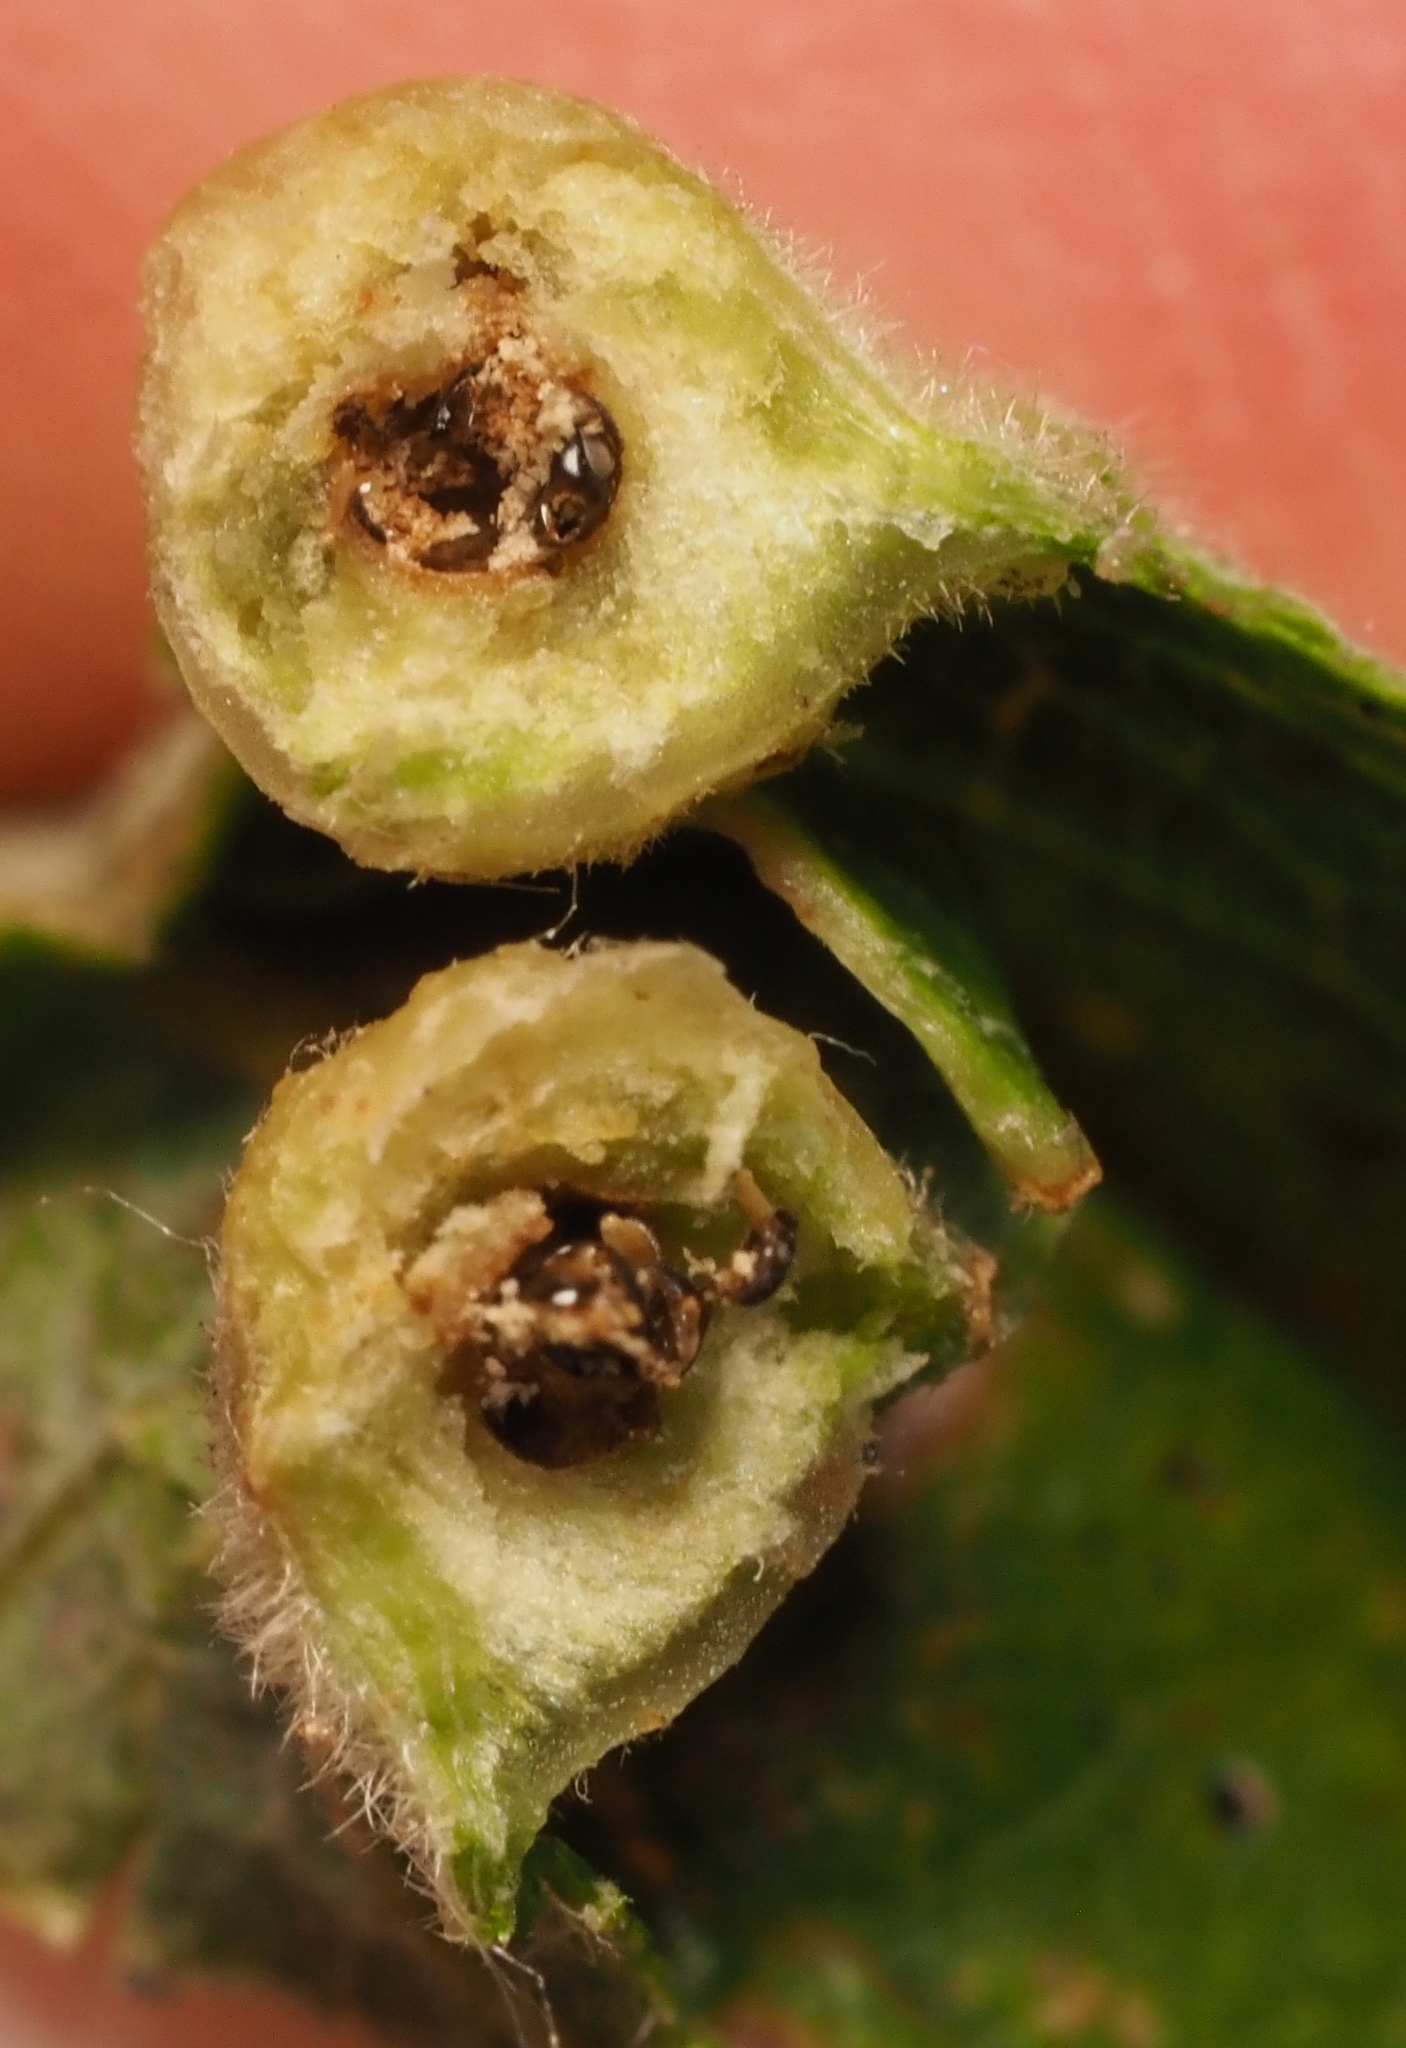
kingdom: Animalia
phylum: Arthropoda
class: Insecta
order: Hymenoptera
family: Cynipidae
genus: Bassettia
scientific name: Bassettia flavipes
